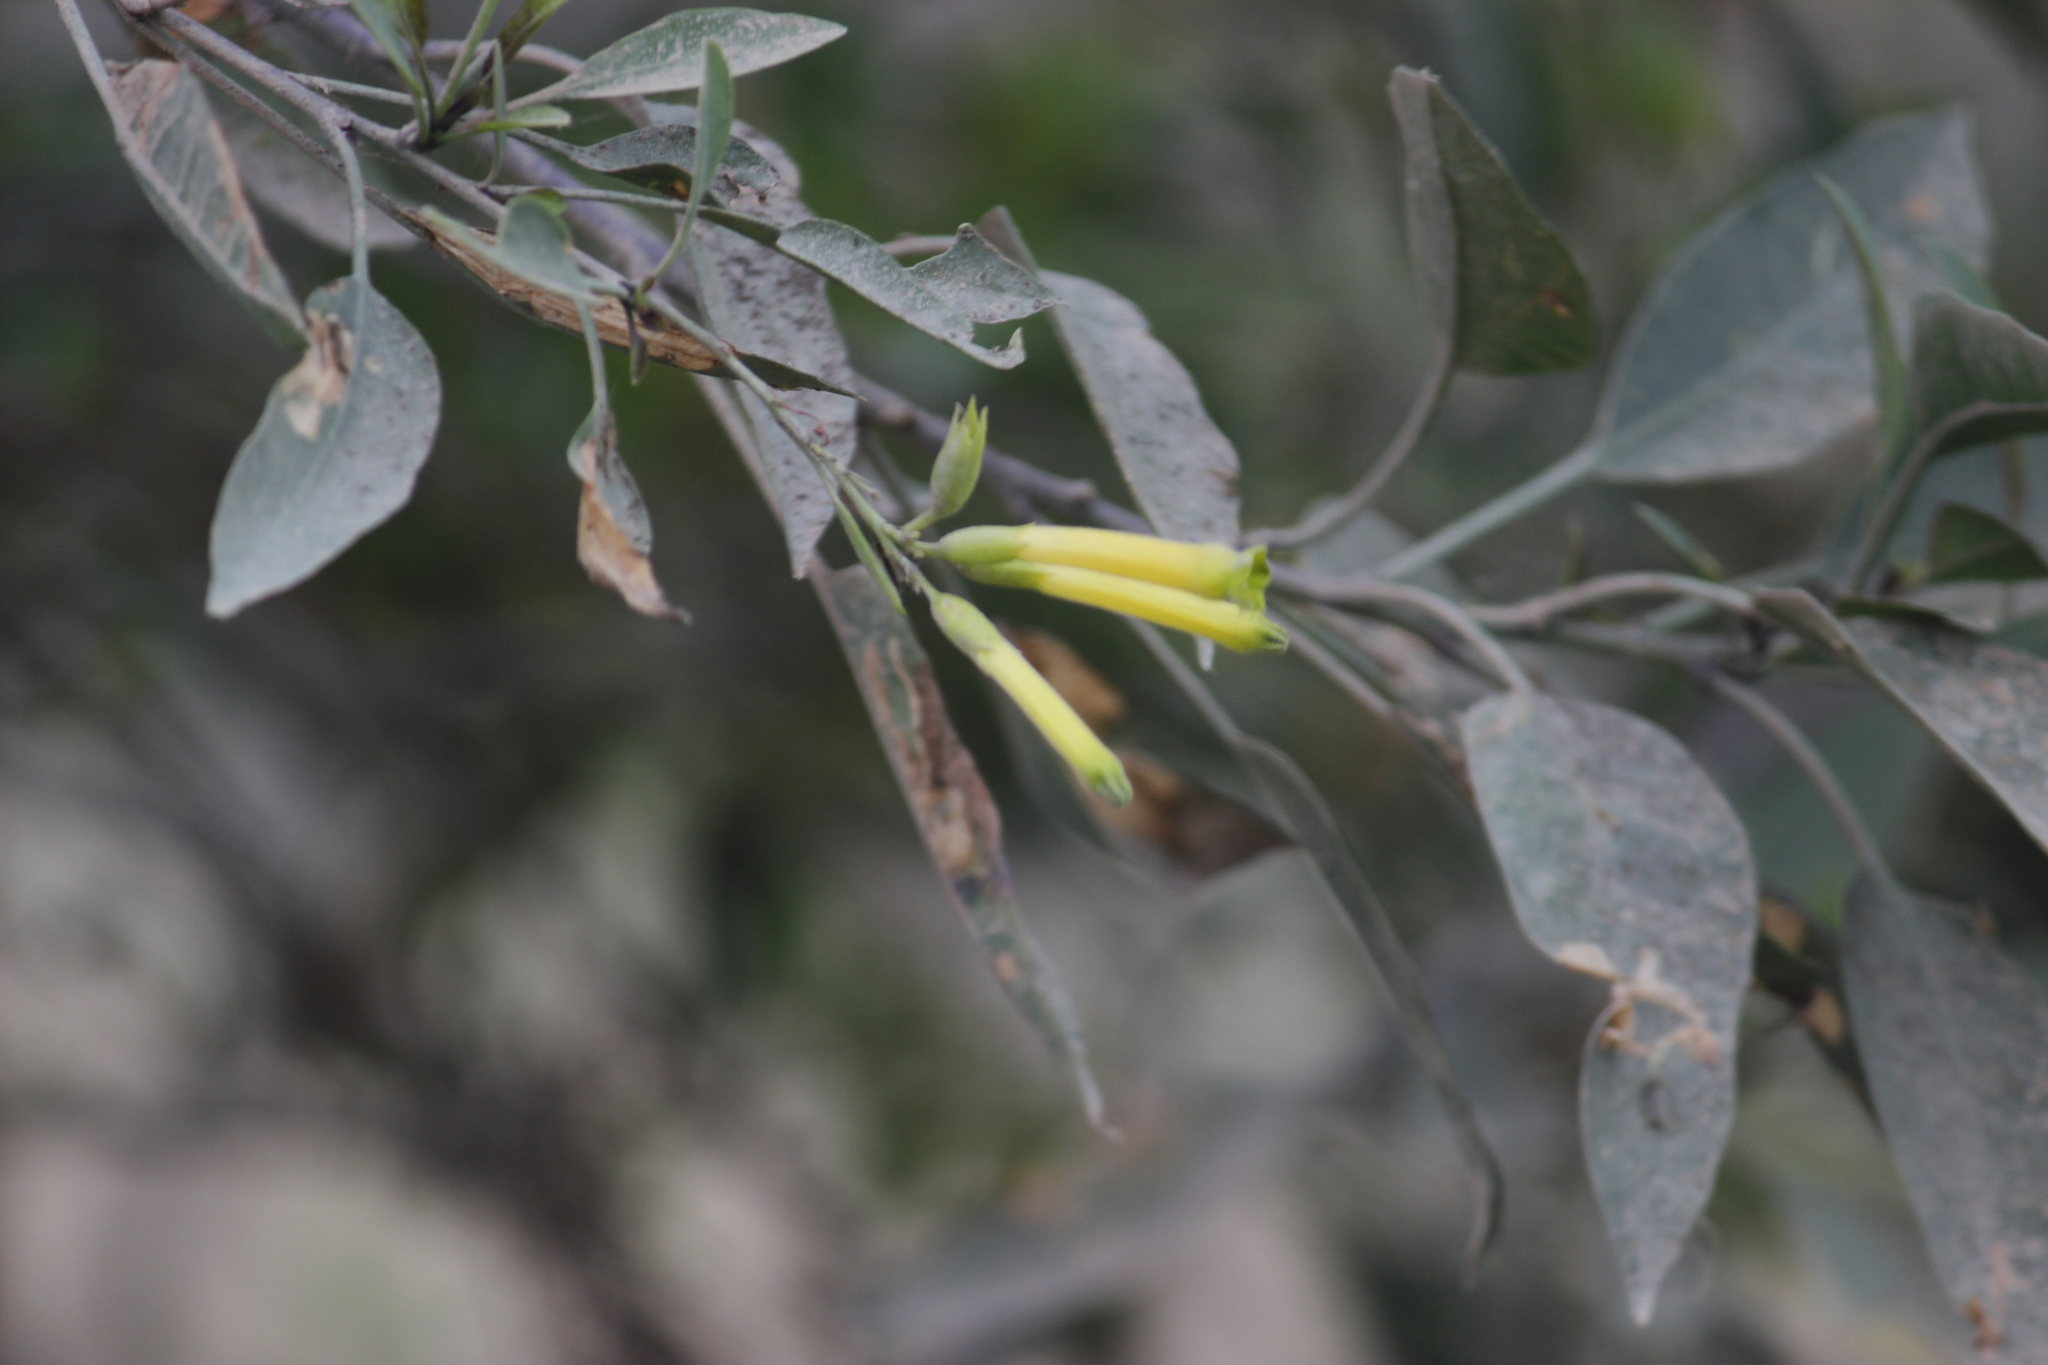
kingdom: Plantae
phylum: Tracheophyta
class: Magnoliopsida
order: Solanales
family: Solanaceae
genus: Nicotiana
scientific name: Nicotiana glauca
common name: Tree tobacco
